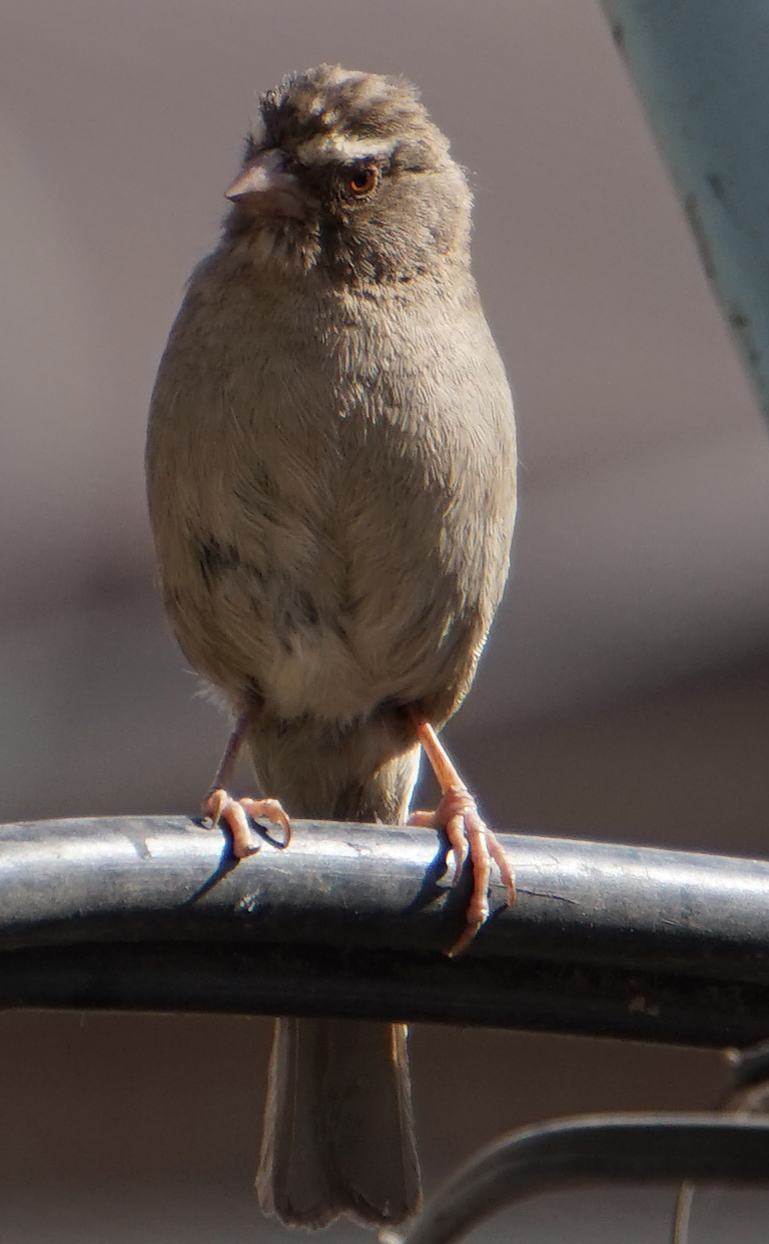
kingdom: Animalia
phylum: Chordata
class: Aves
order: Passeriformes
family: Fringillidae
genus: Crithagra
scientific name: Crithagra tristriata
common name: Brown-rumped seedeater
